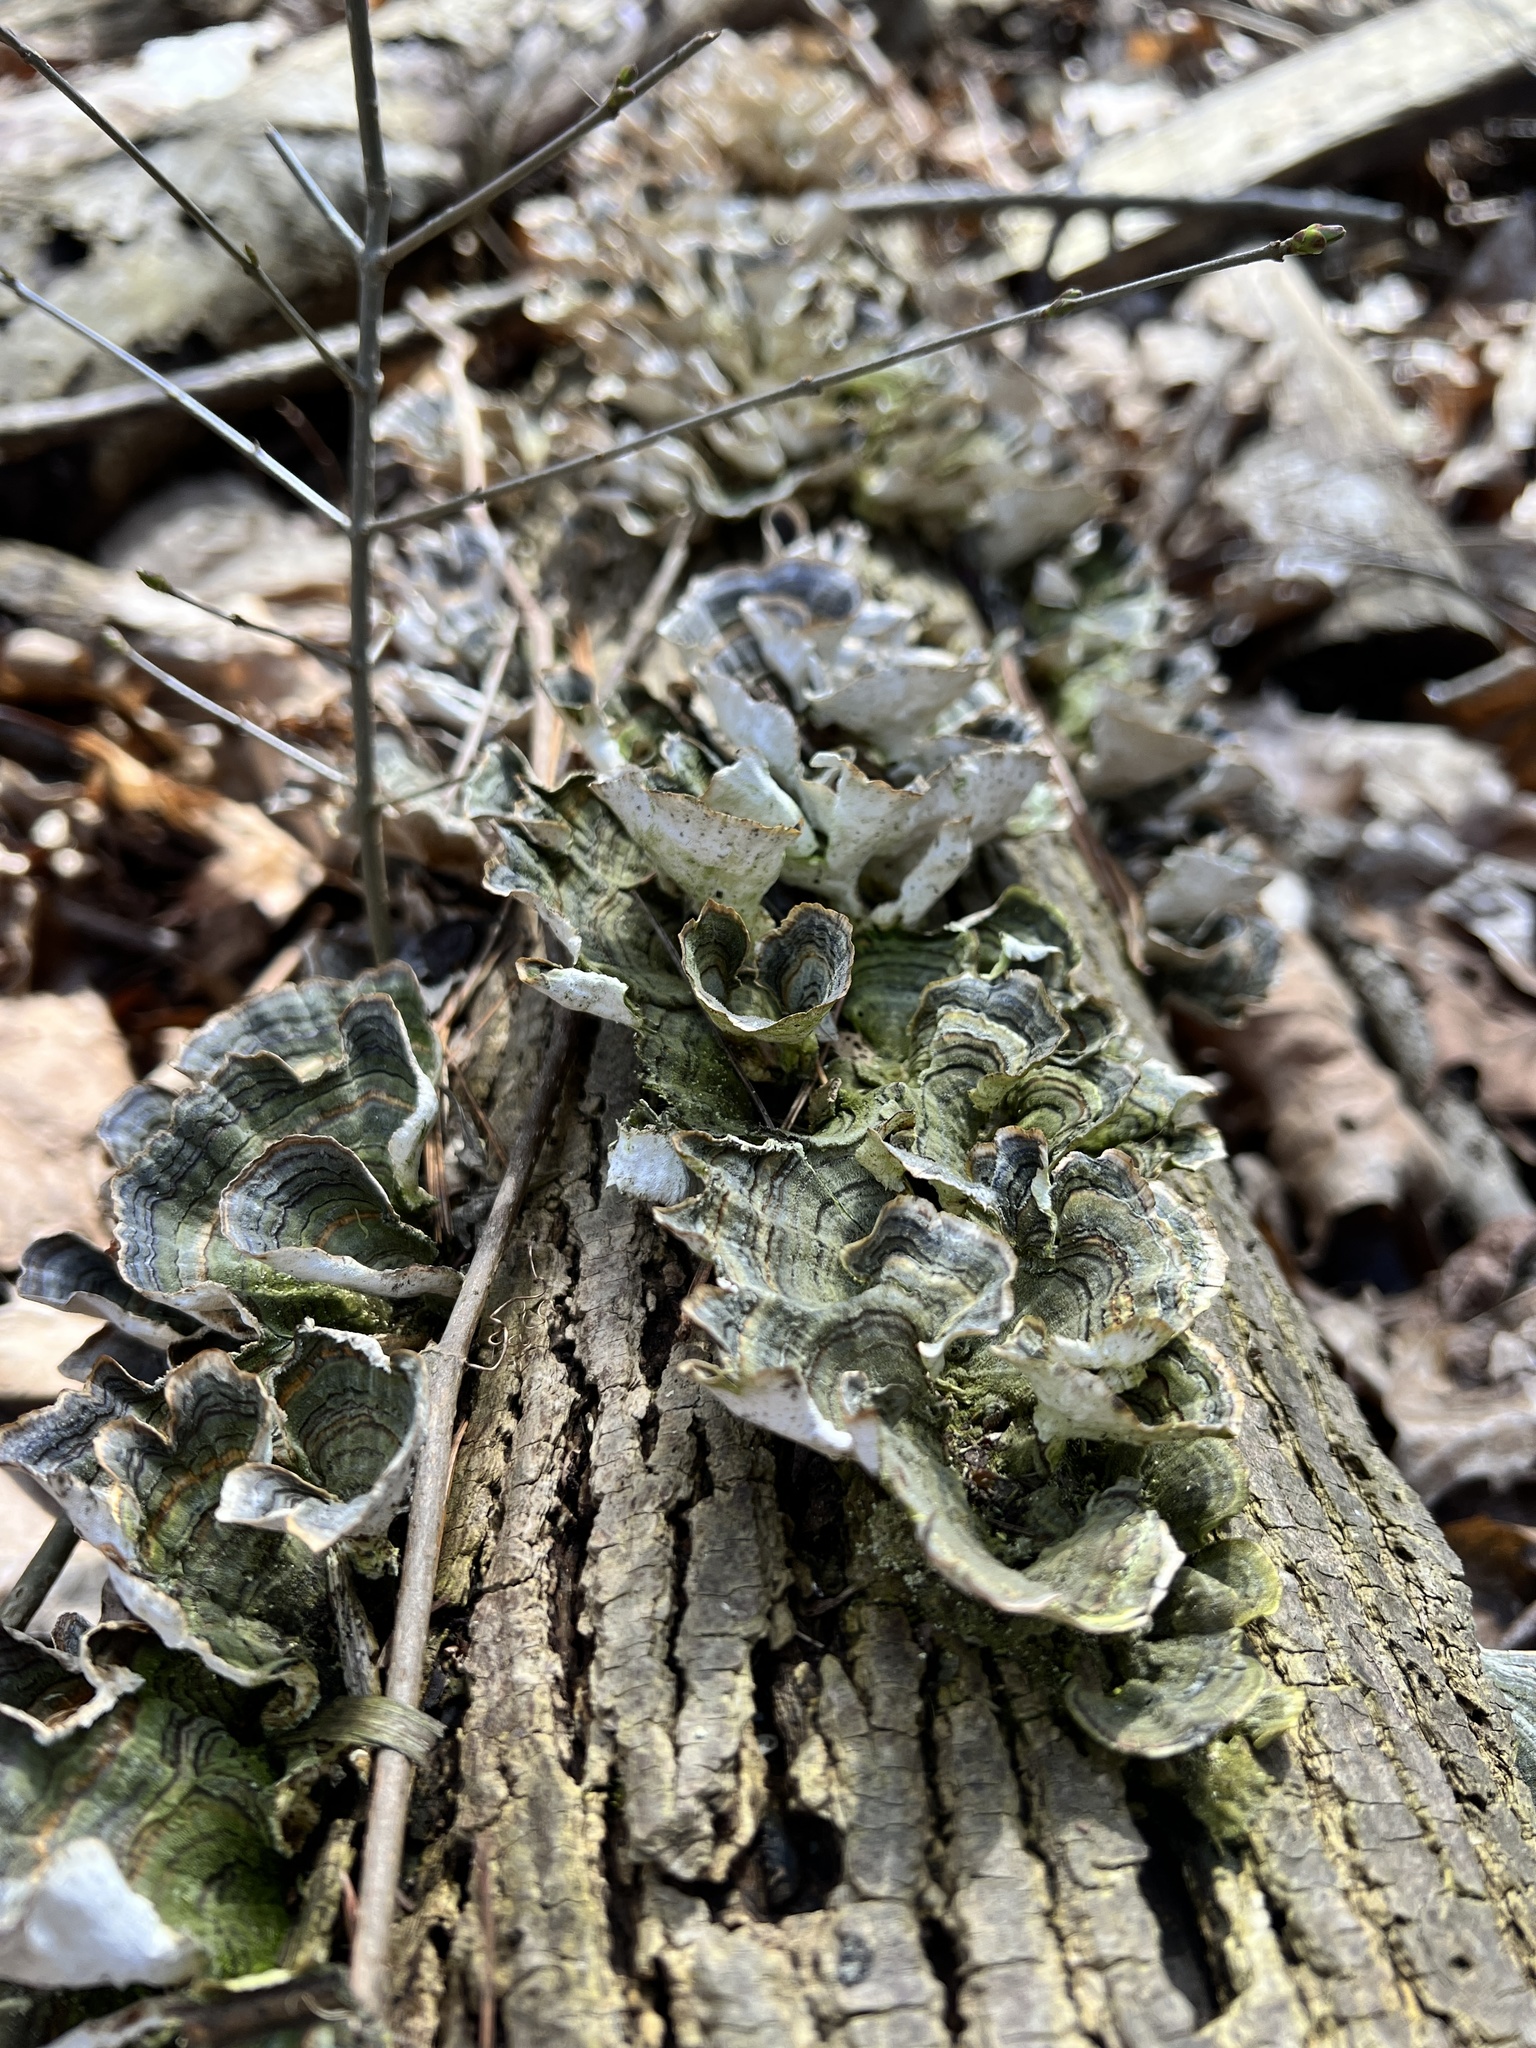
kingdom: Fungi
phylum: Basidiomycota
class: Agaricomycetes
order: Polyporales
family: Polyporaceae
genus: Trametes
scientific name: Trametes versicolor
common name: Turkeytail
